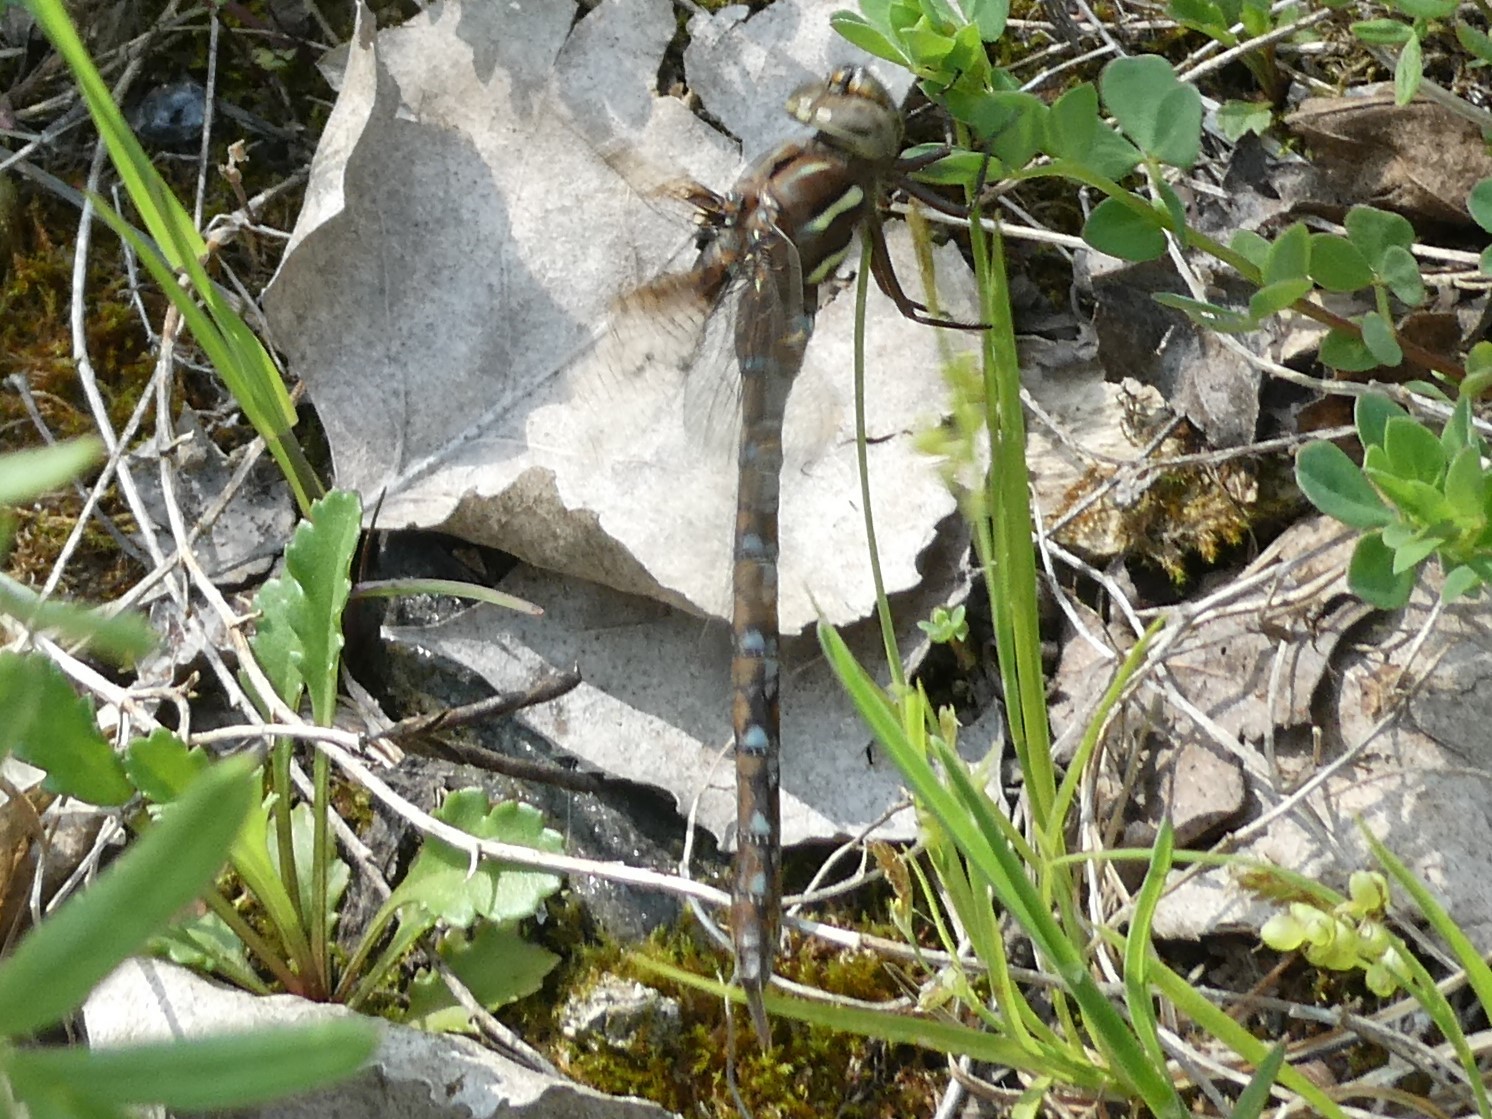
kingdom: Animalia
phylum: Arthropoda
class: Insecta
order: Odonata
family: Aeshnidae
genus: Basiaeschna
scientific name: Basiaeschna janata
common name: Springtime darner
